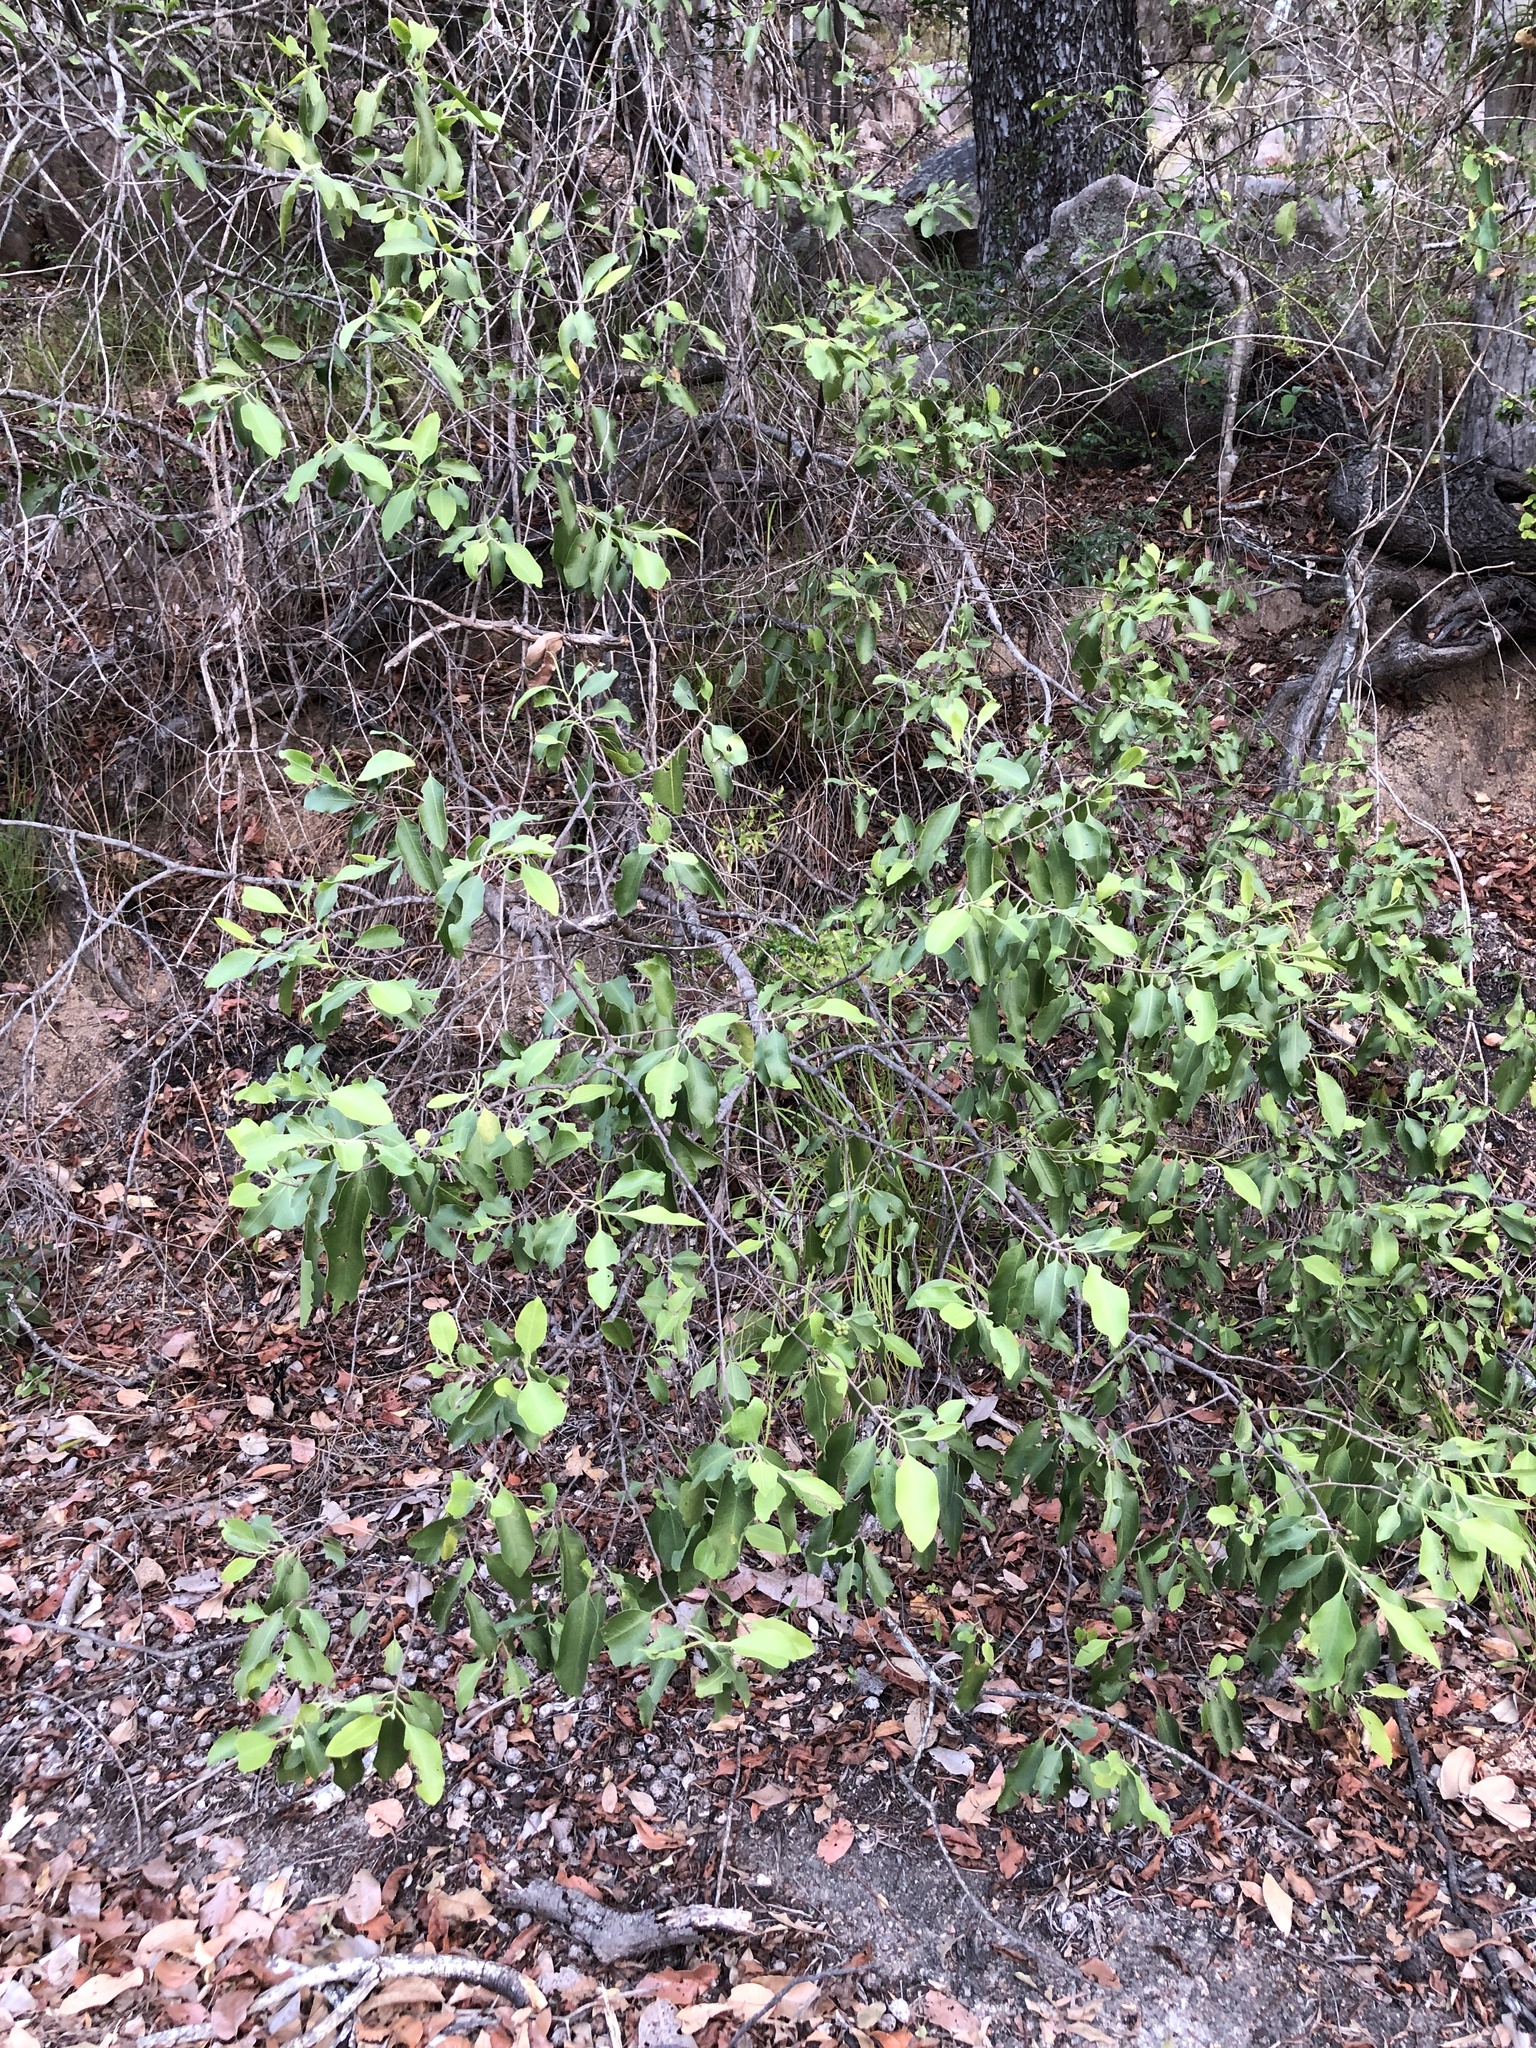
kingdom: Plantae
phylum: Tracheophyta
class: Magnoliopsida
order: Sapindales
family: Rutaceae
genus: Geijera
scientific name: Geijera salicifolia
